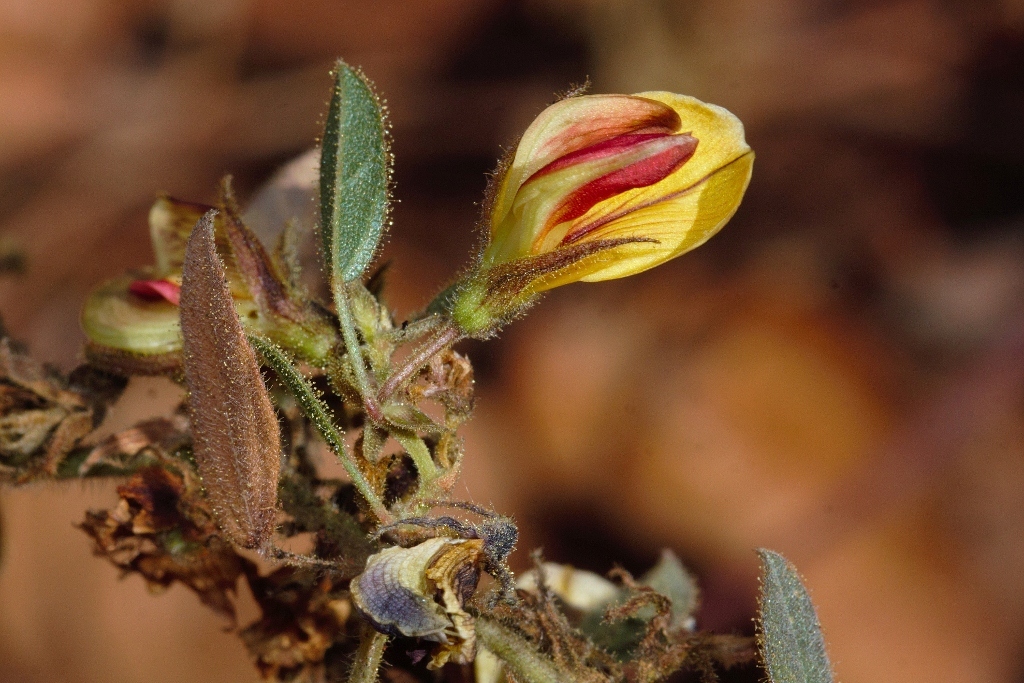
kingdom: Plantae
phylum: Tracheophyta
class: Magnoliopsida
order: Fabales
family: Fabaceae
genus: Rhynchosia
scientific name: Rhynchosia monophylla
